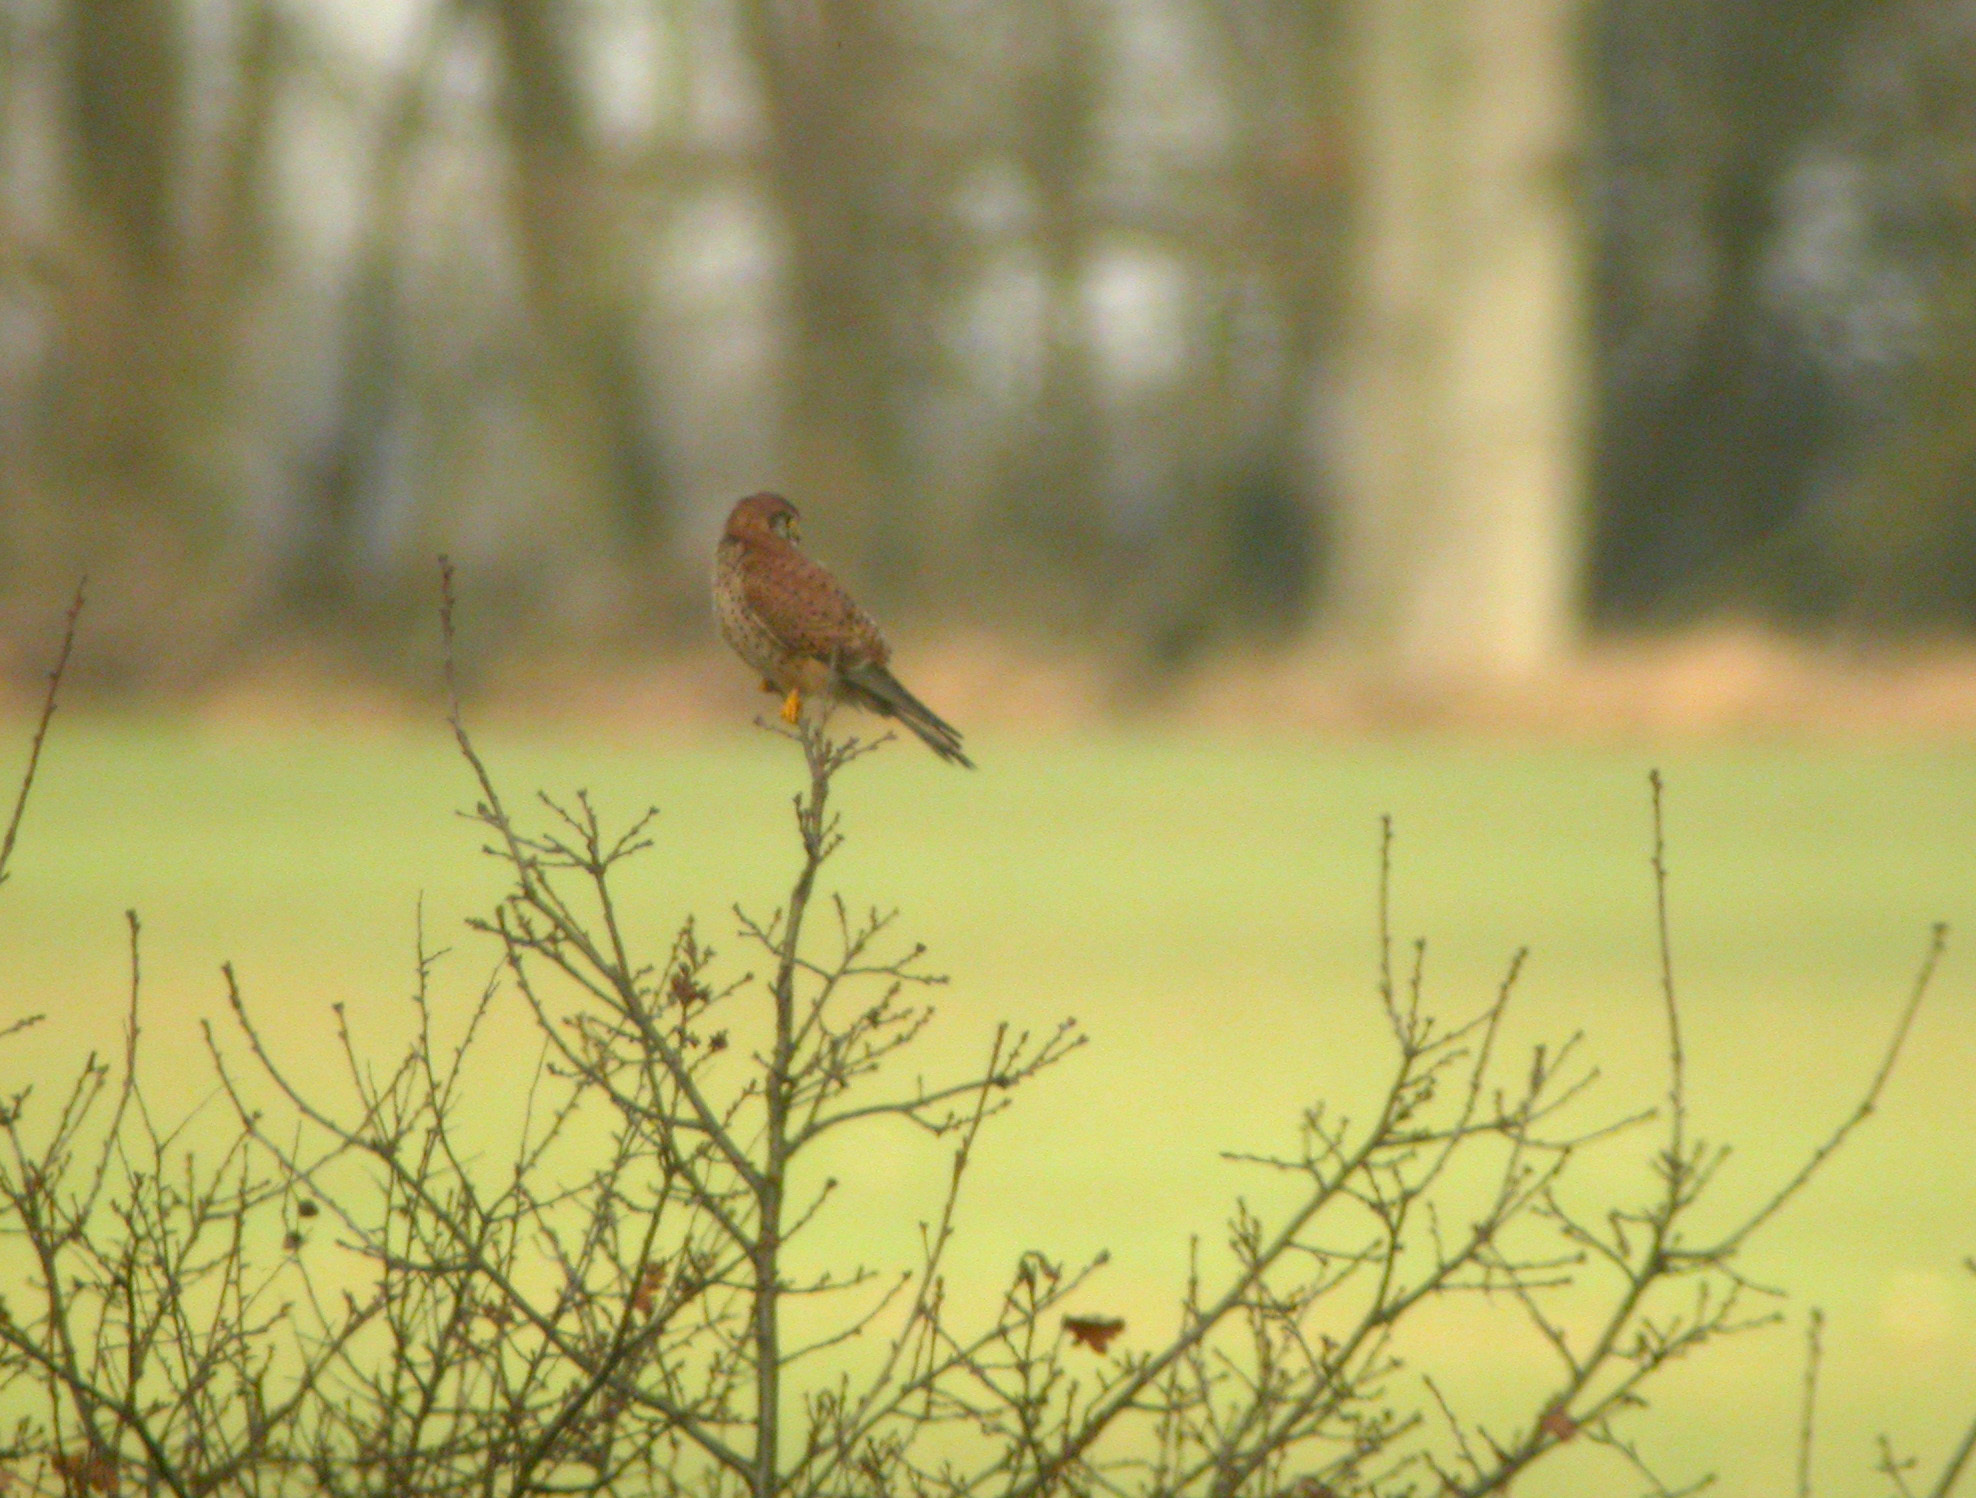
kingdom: Animalia
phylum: Chordata
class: Aves
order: Falconiformes
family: Falconidae
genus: Falco
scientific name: Falco tinnunculus
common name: Common kestrel
